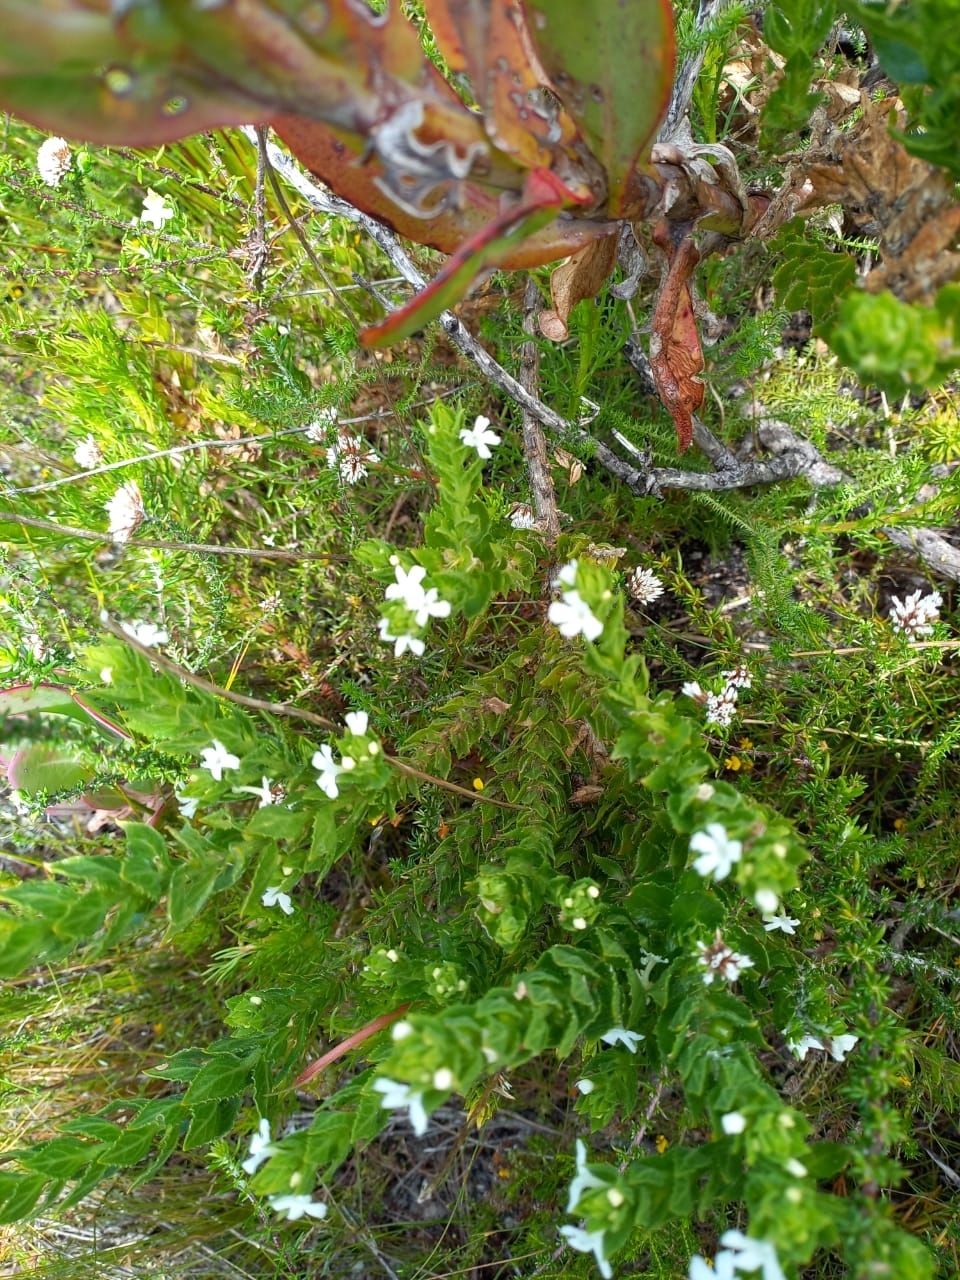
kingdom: Plantae
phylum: Tracheophyta
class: Magnoliopsida
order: Lamiales
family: Scrophulariaceae
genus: Oftia
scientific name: Oftia africana
